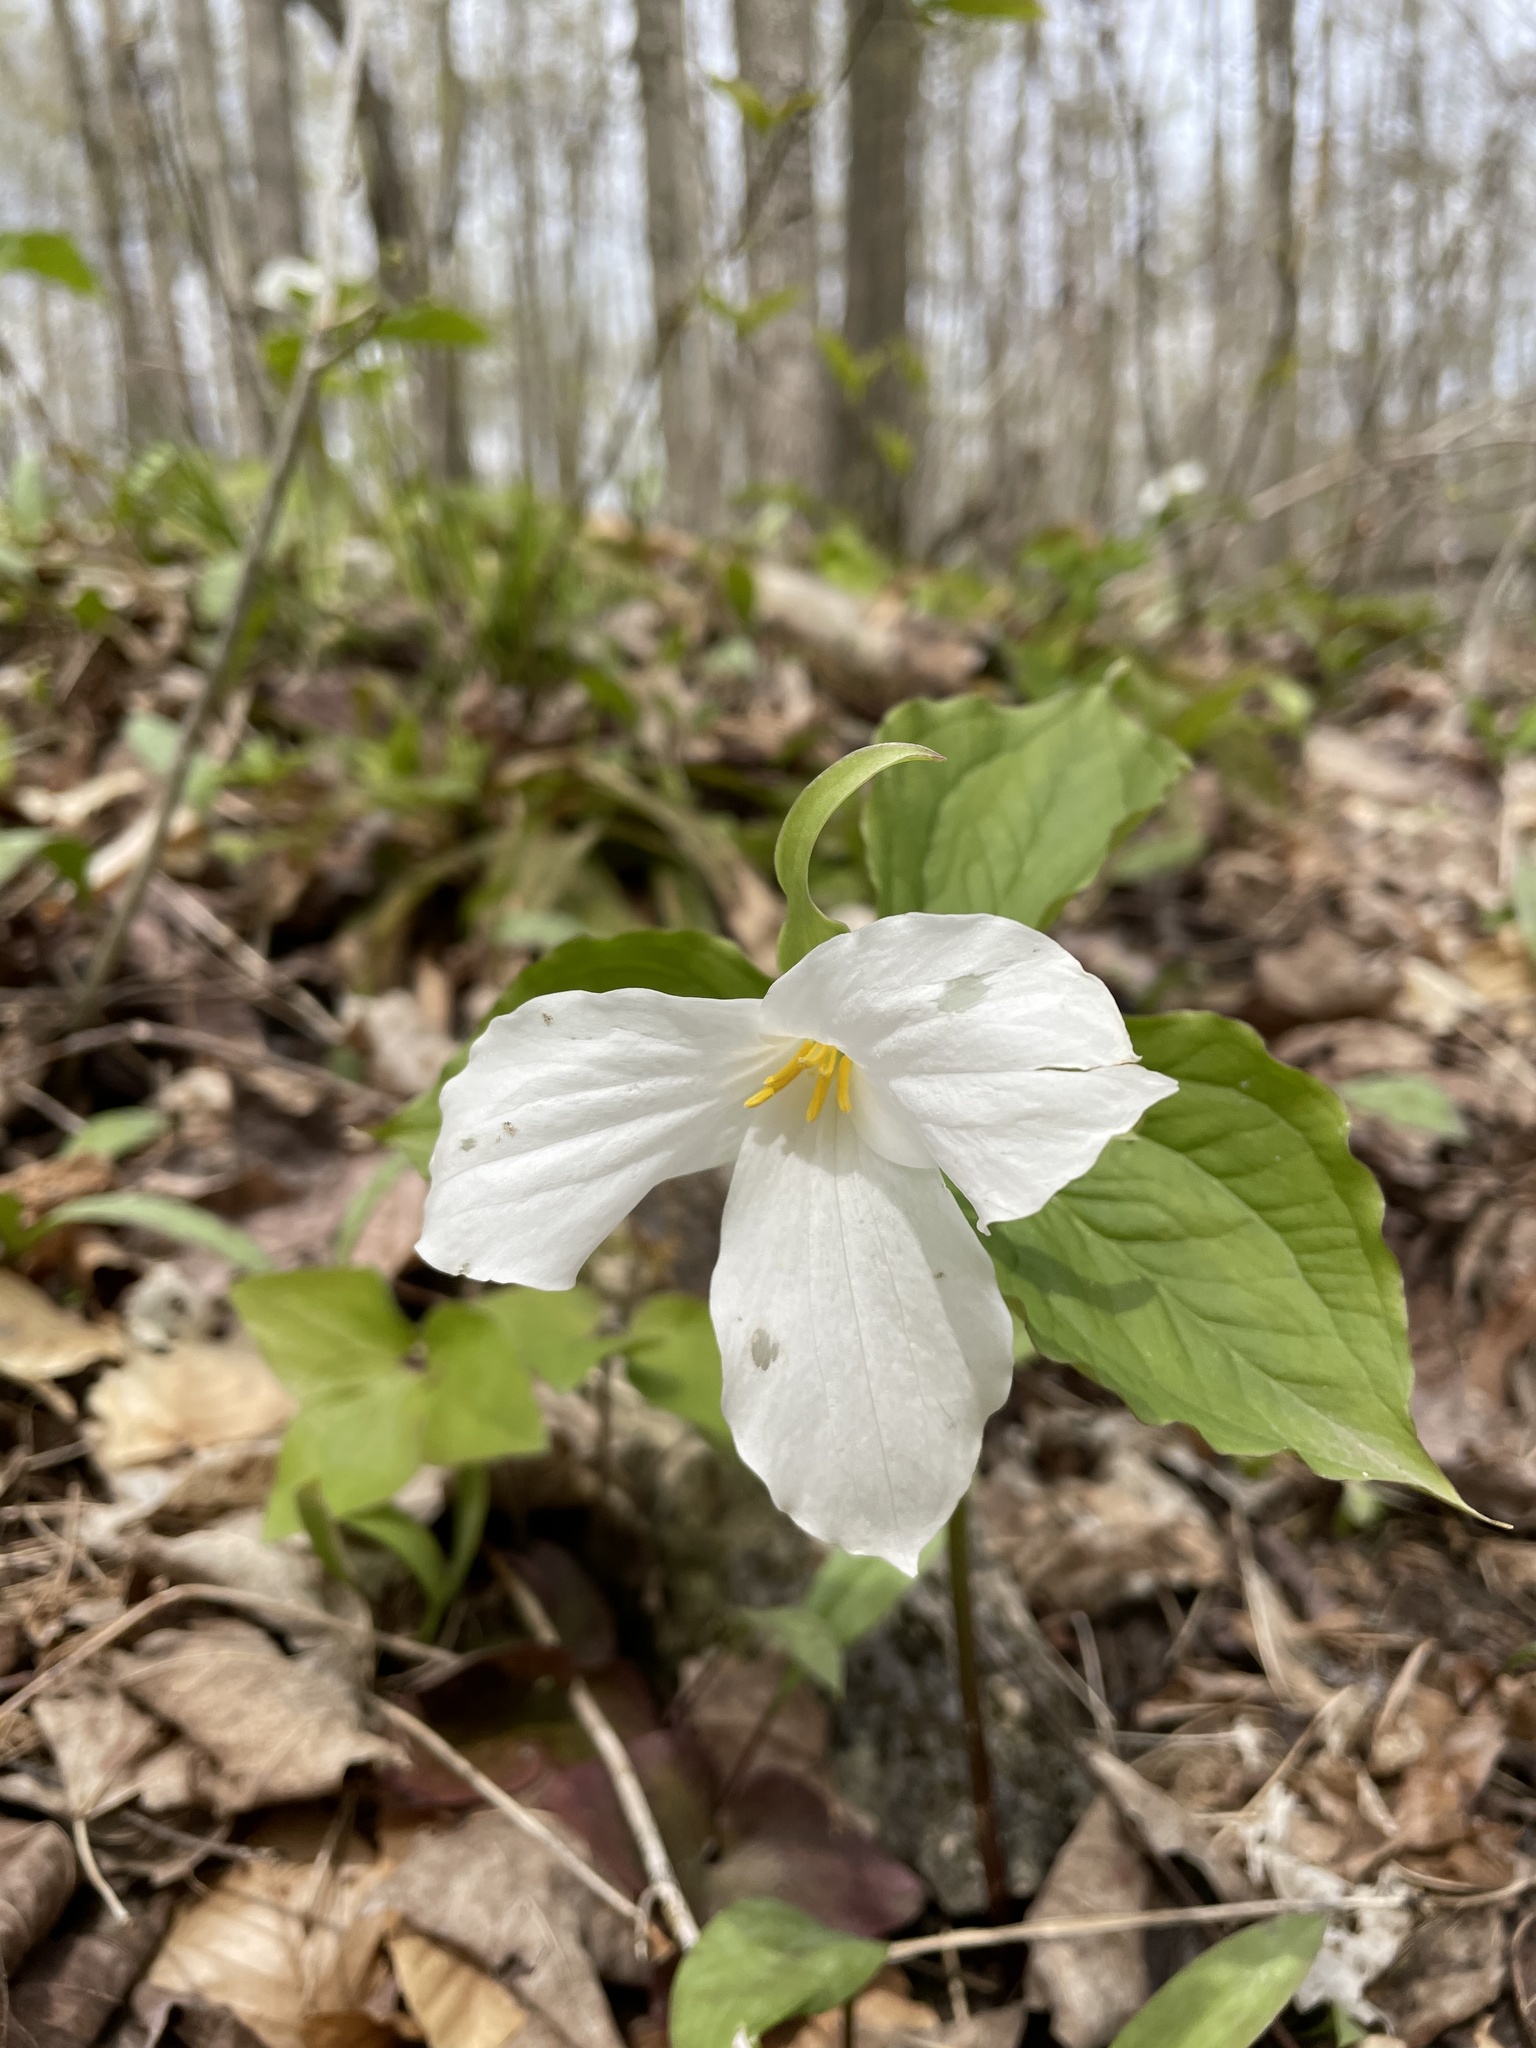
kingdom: Plantae
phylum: Tracheophyta
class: Liliopsida
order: Liliales
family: Melanthiaceae
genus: Trillium
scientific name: Trillium grandiflorum
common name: Great white trillium
